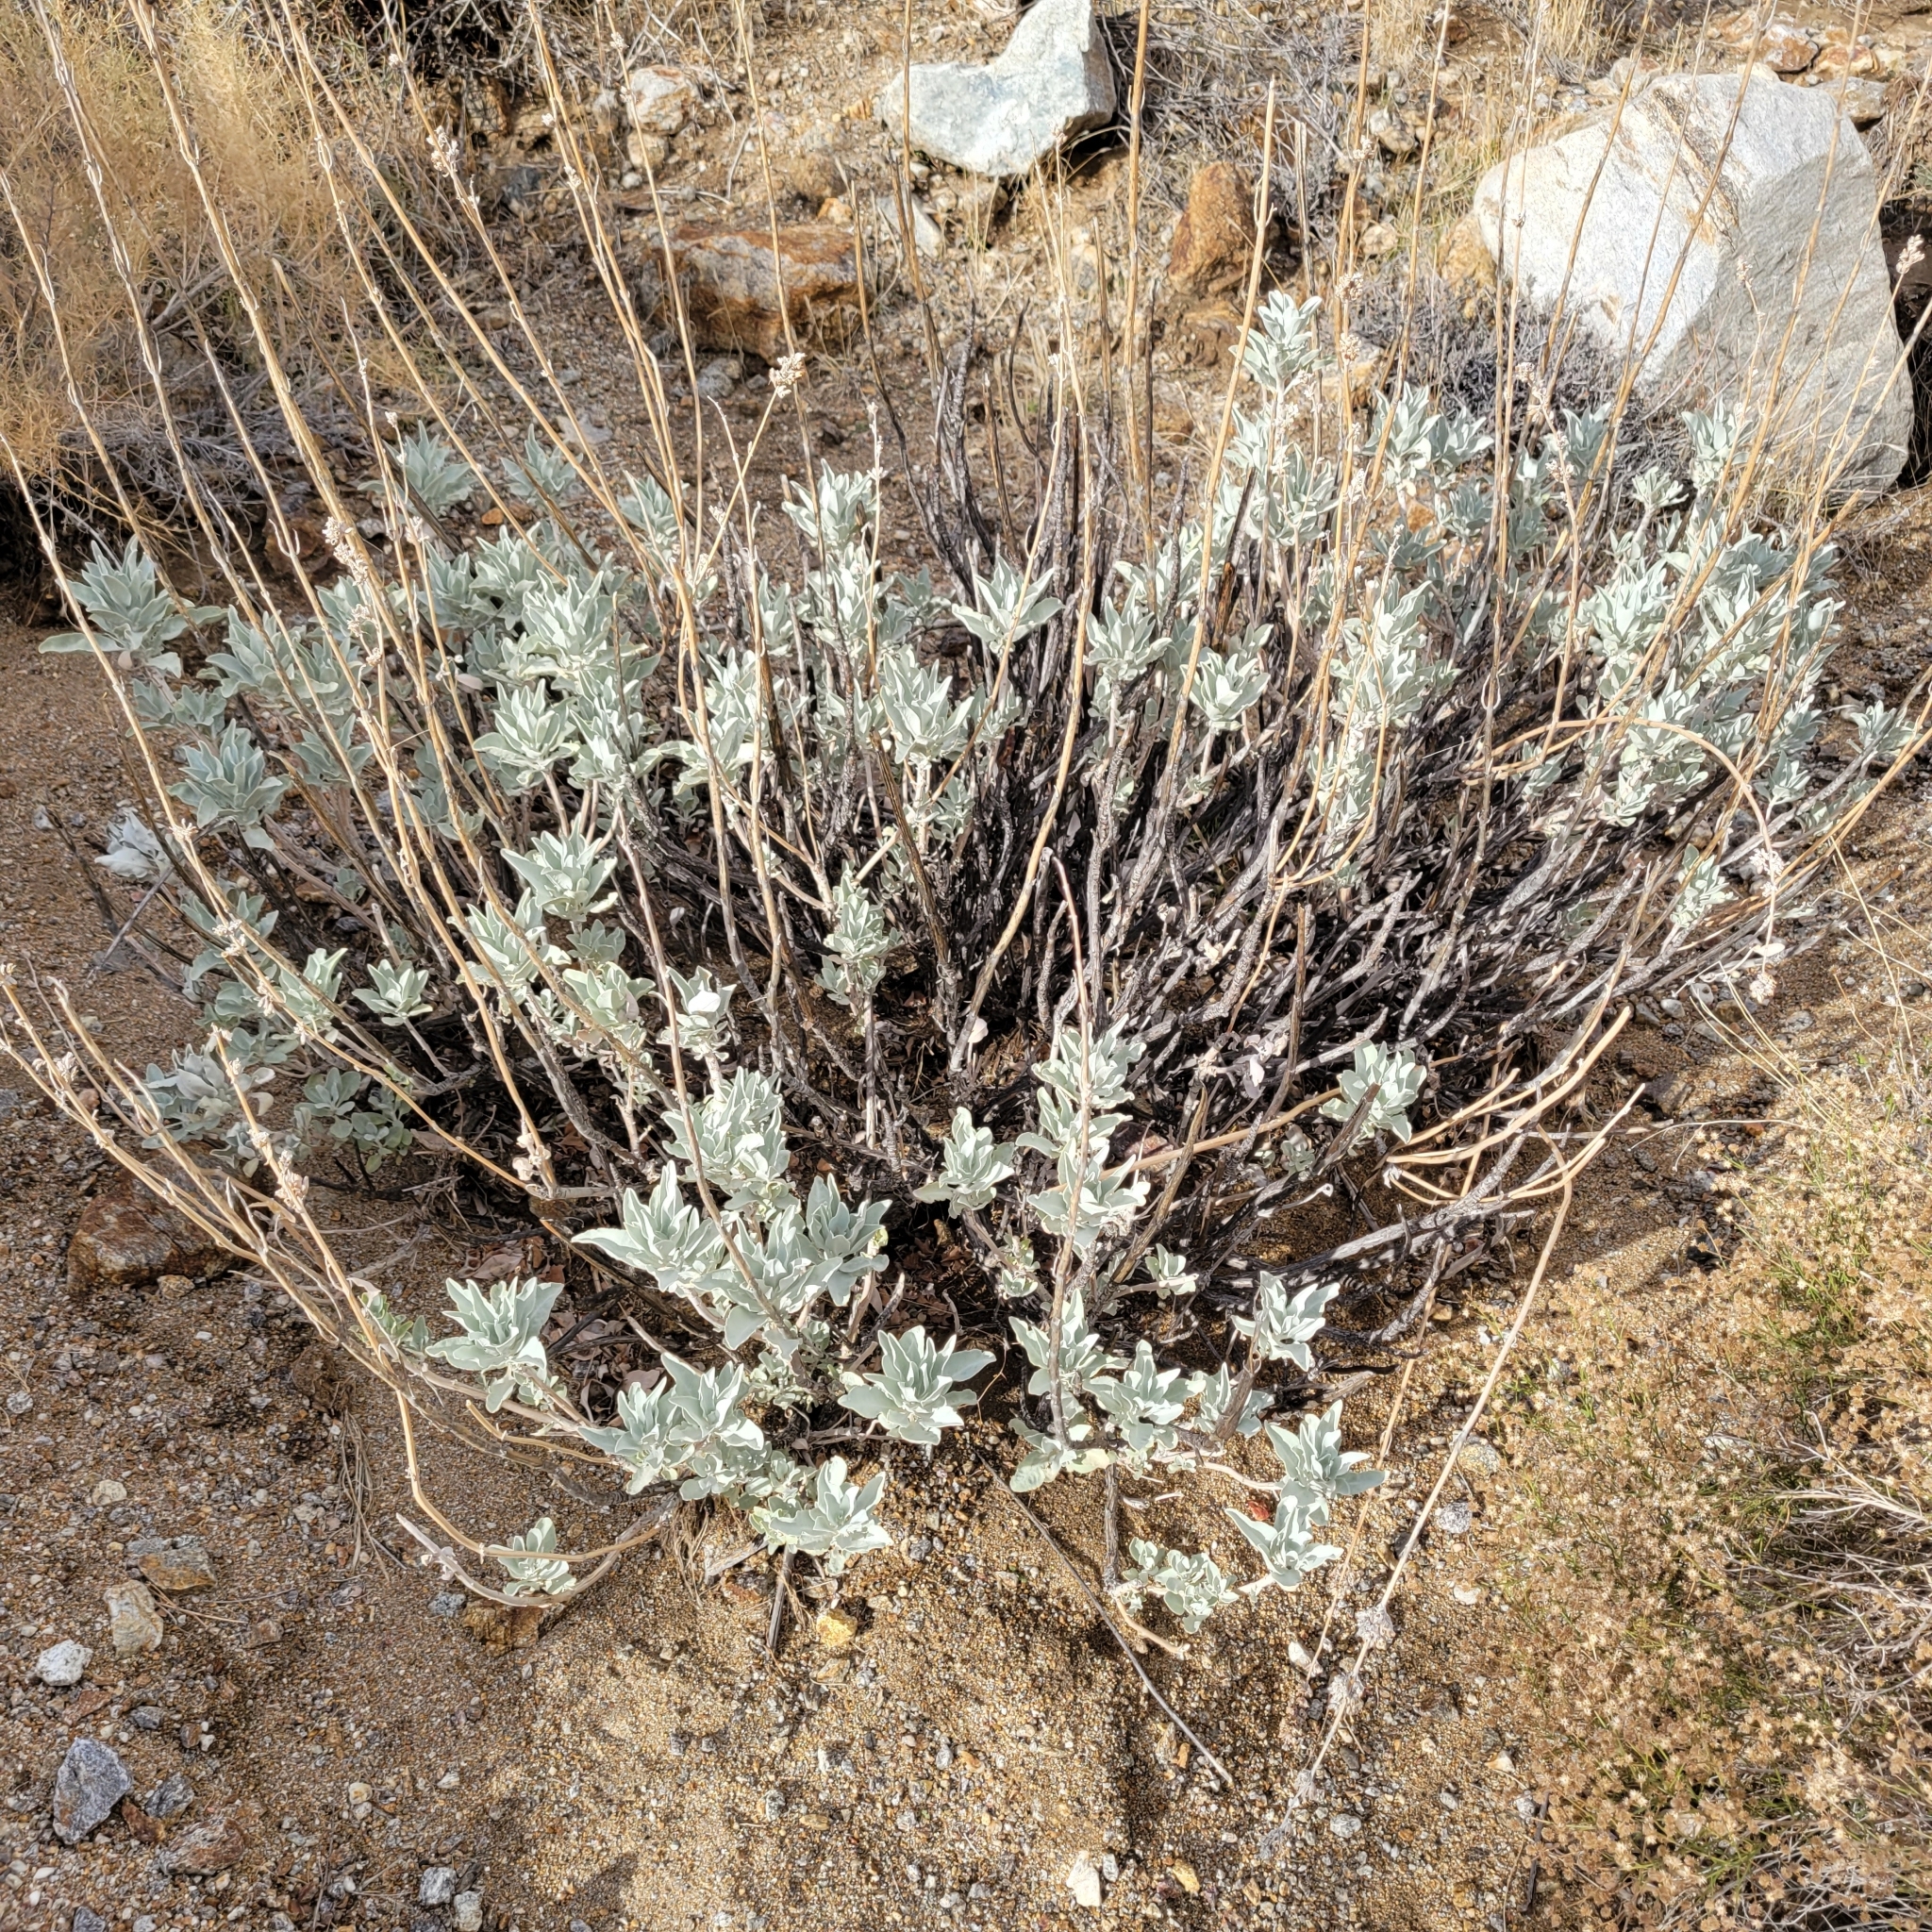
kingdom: Plantae
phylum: Tracheophyta
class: Magnoliopsida
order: Lamiales
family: Lamiaceae
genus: Salvia
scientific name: Salvia apiana
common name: White sage
